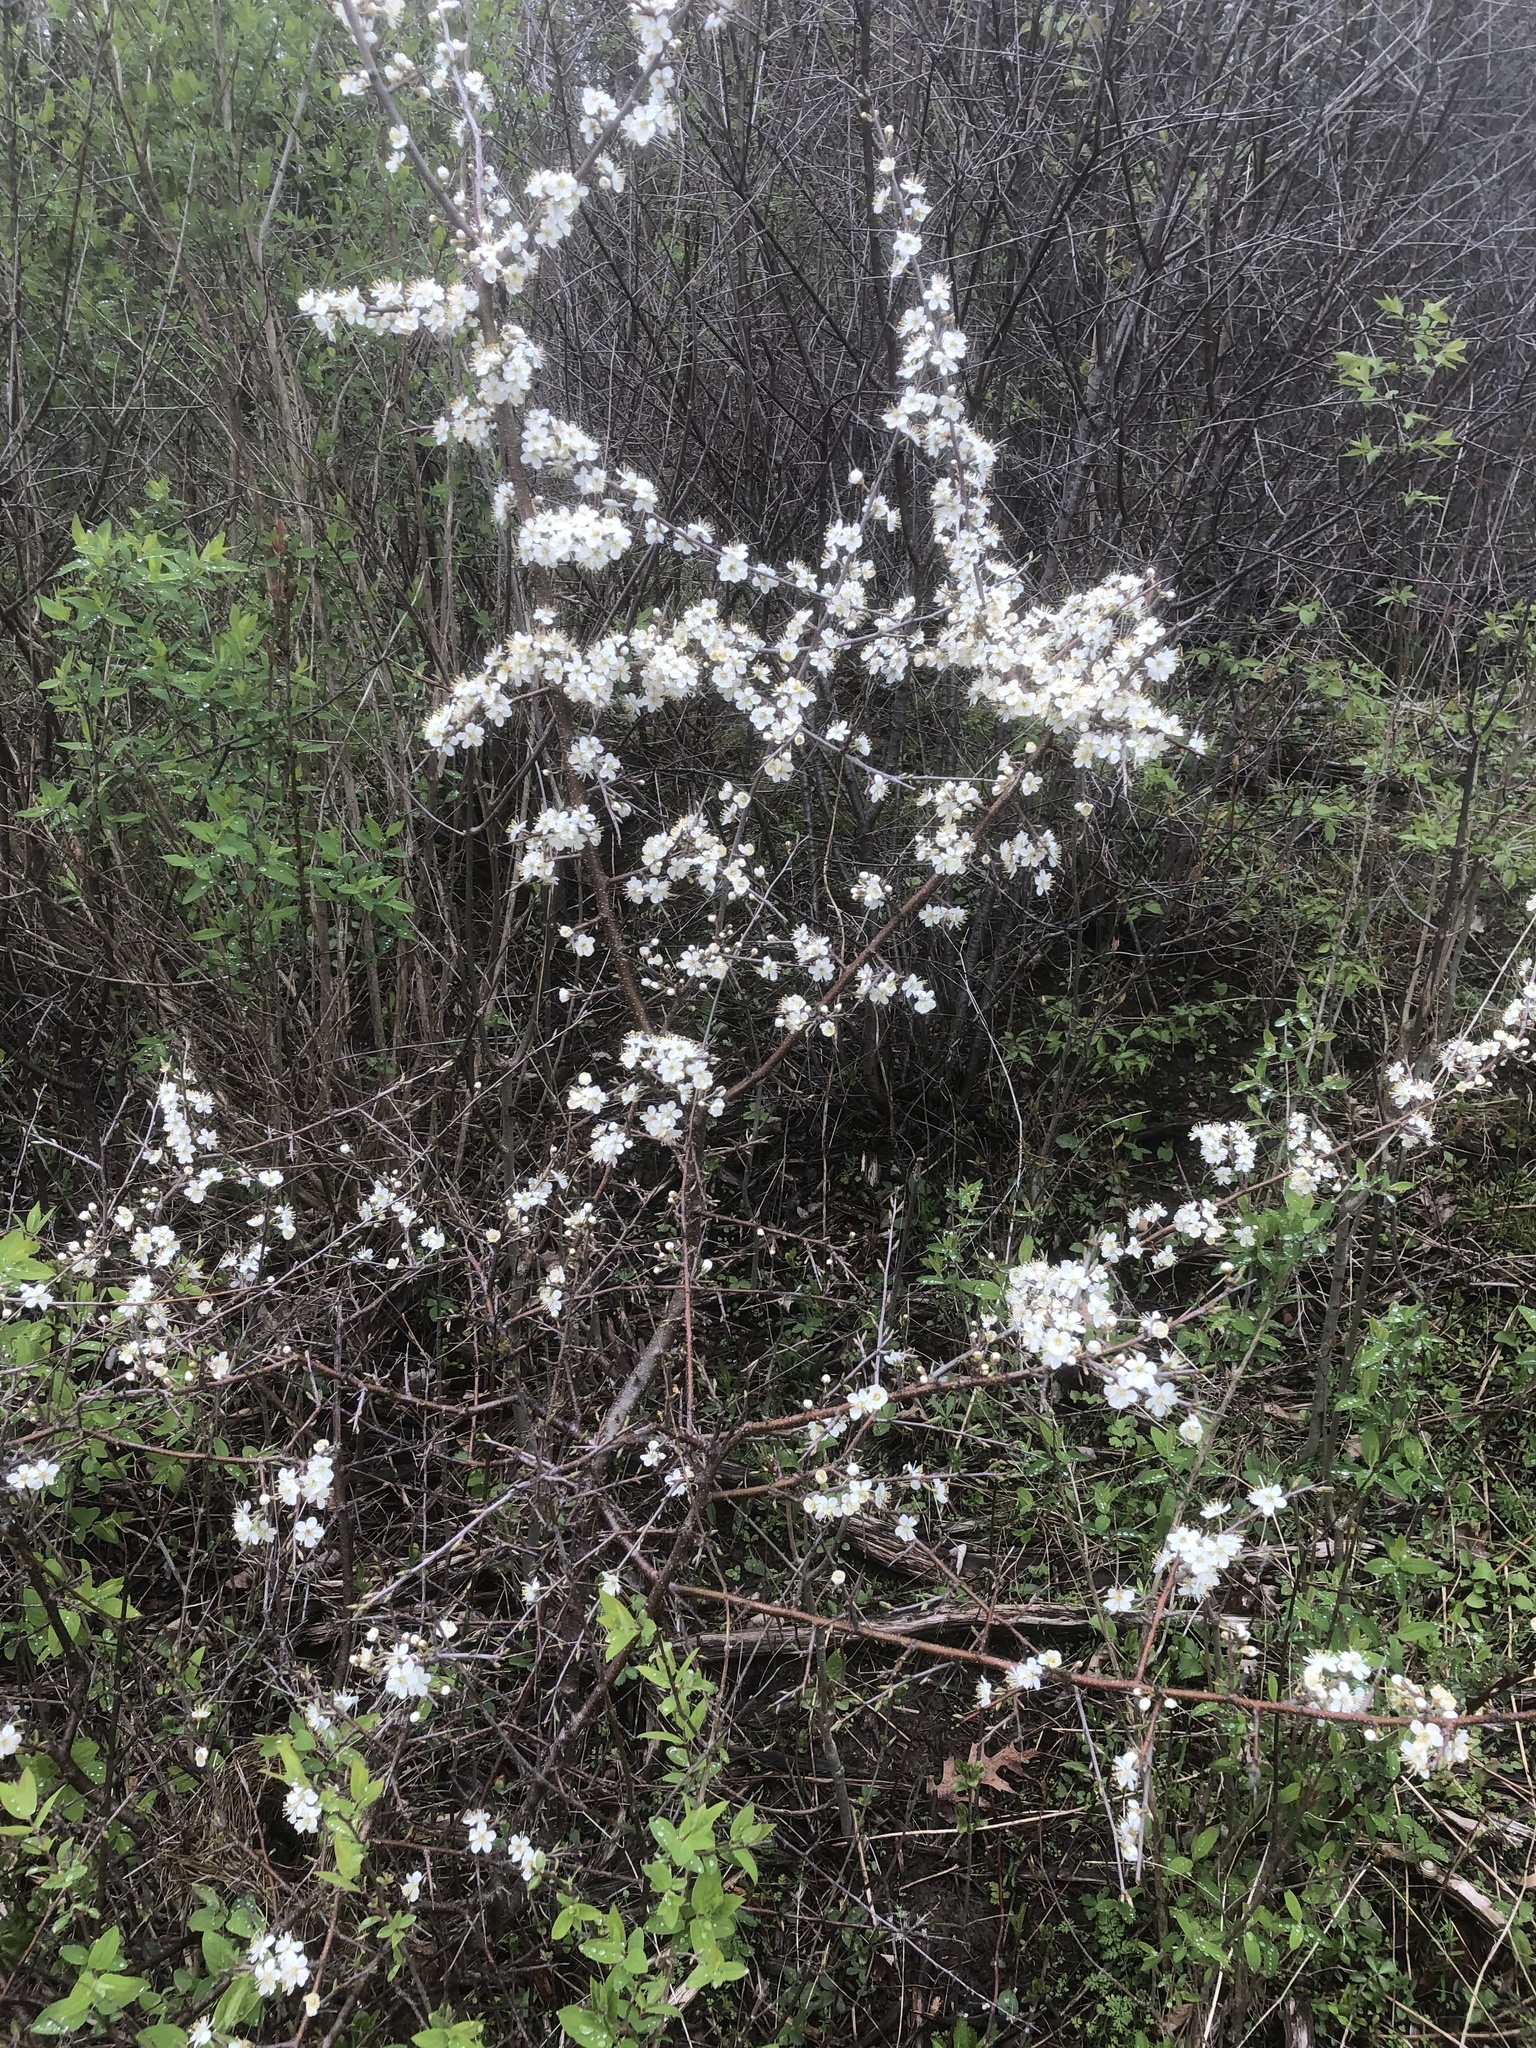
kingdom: Plantae
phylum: Tracheophyta
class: Magnoliopsida
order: Rosales
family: Rosaceae
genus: Prunus
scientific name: Prunus americana
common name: American plum
